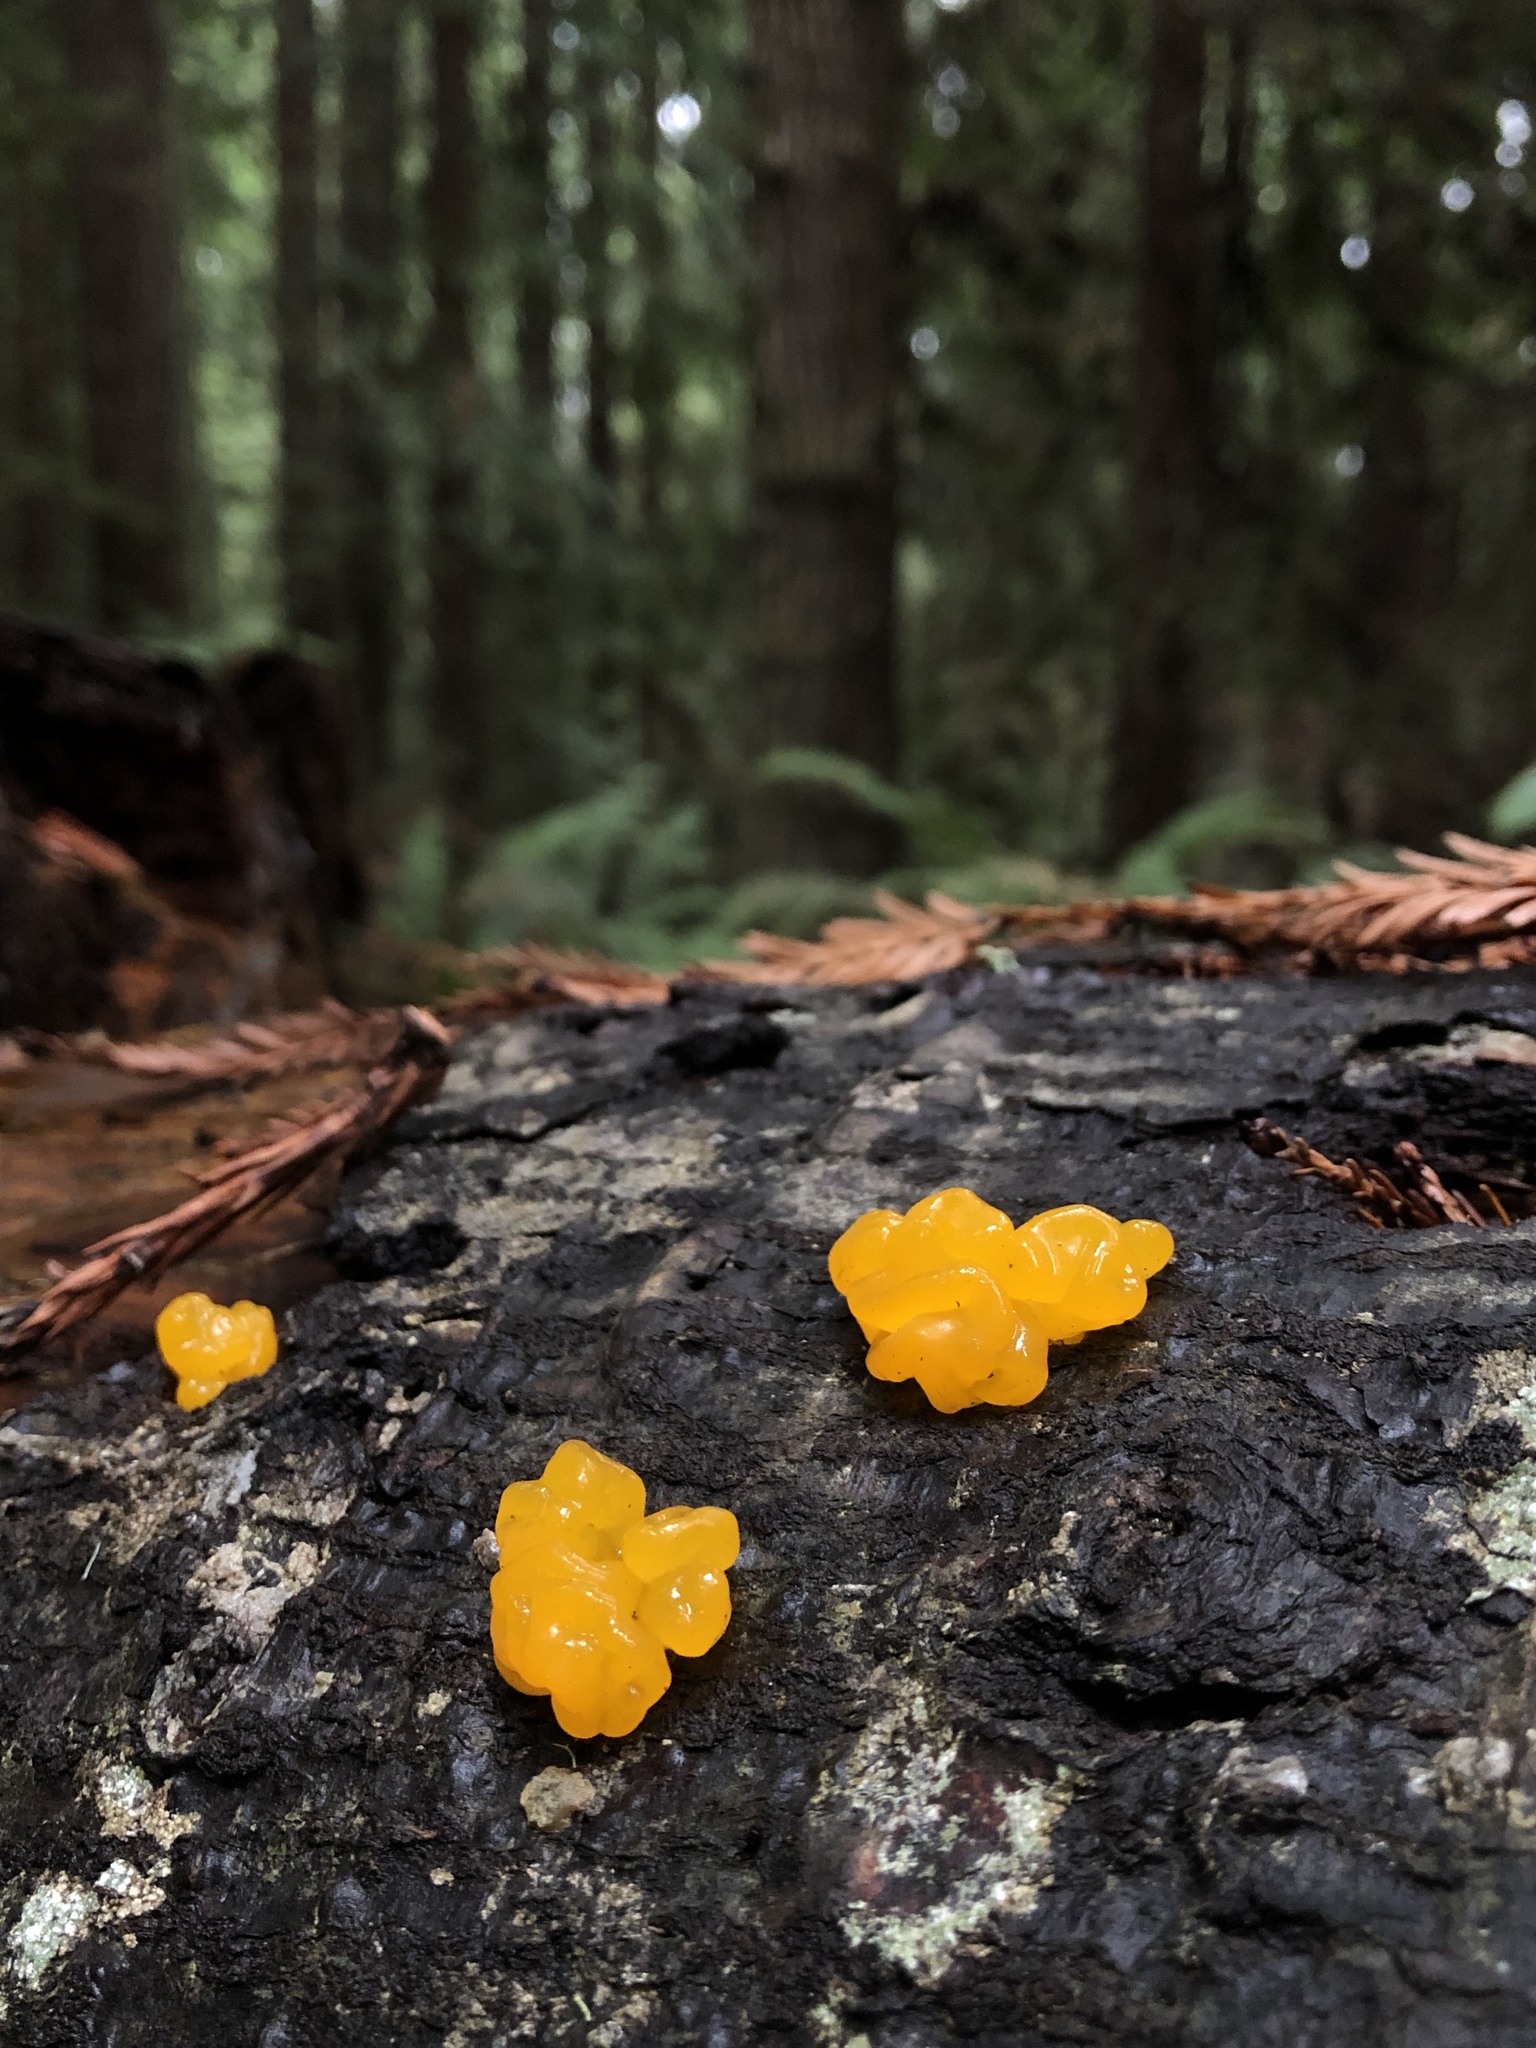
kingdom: Fungi
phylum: Basidiomycota
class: Tremellomycetes
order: Tremellales
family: Tremellaceae
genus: Tremella
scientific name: Tremella mesenterica
